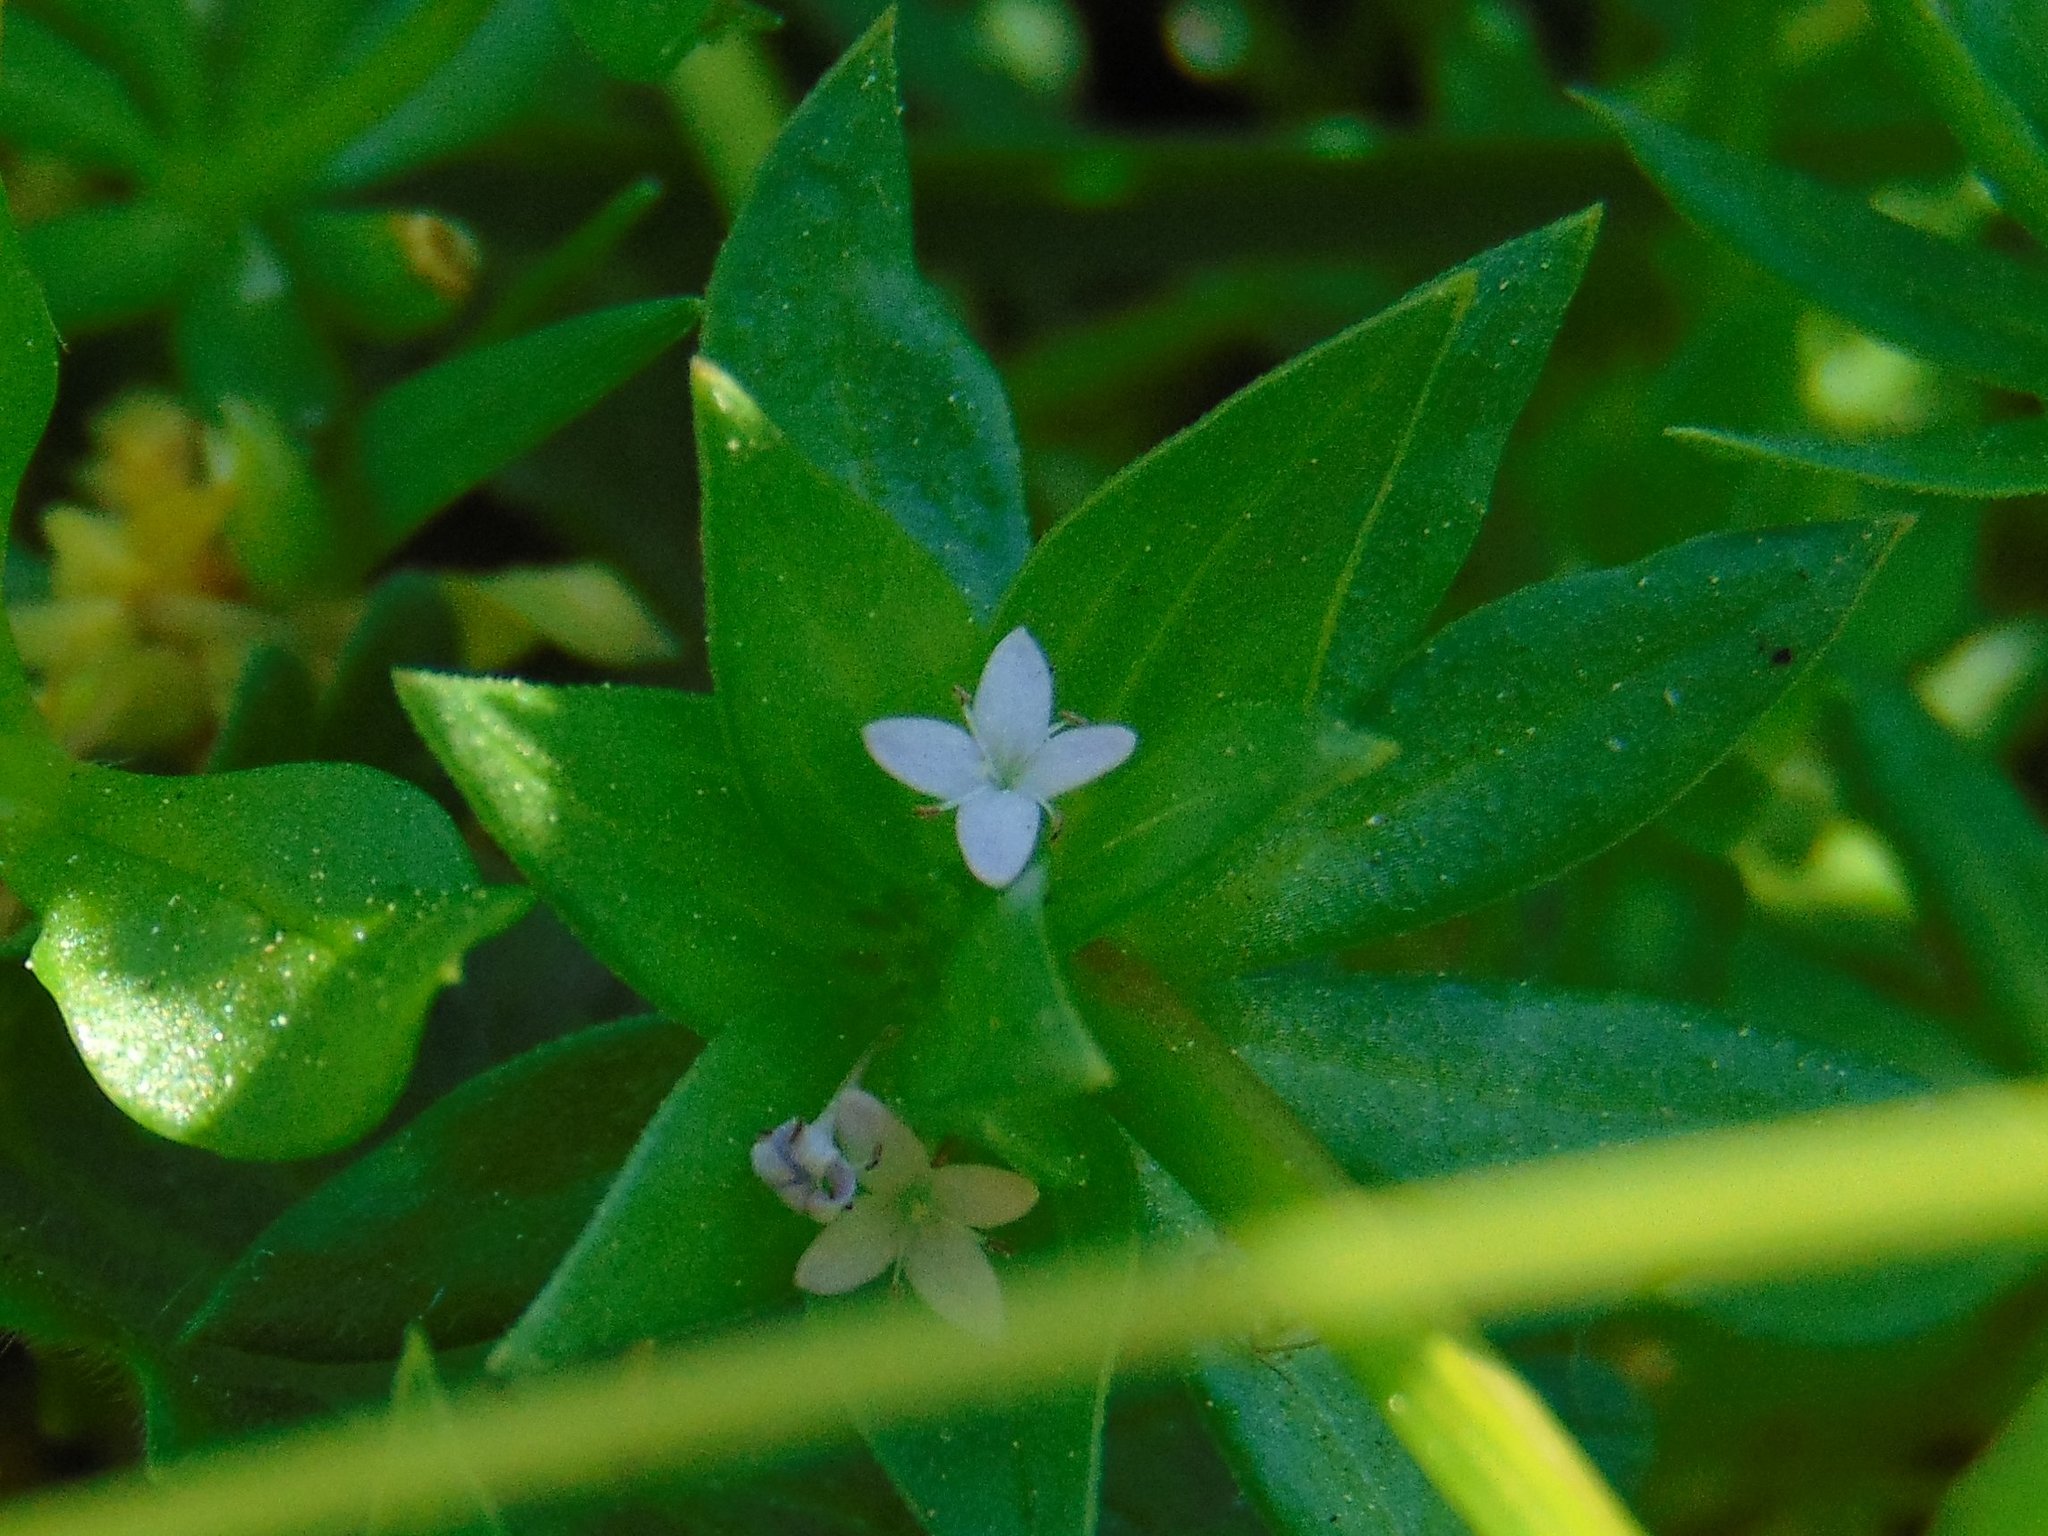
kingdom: Plantae
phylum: Tracheophyta
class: Magnoliopsida
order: Gentianales
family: Rubiaceae
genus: Sherardia
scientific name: Sherardia arvensis
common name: Field madder
